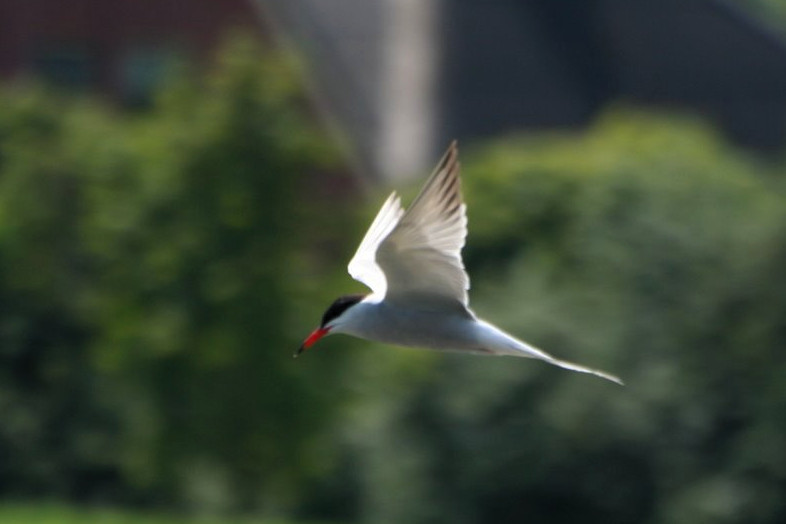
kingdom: Animalia
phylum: Chordata
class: Aves
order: Charadriiformes
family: Laridae
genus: Sterna
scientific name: Sterna hirundo
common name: Common tern
